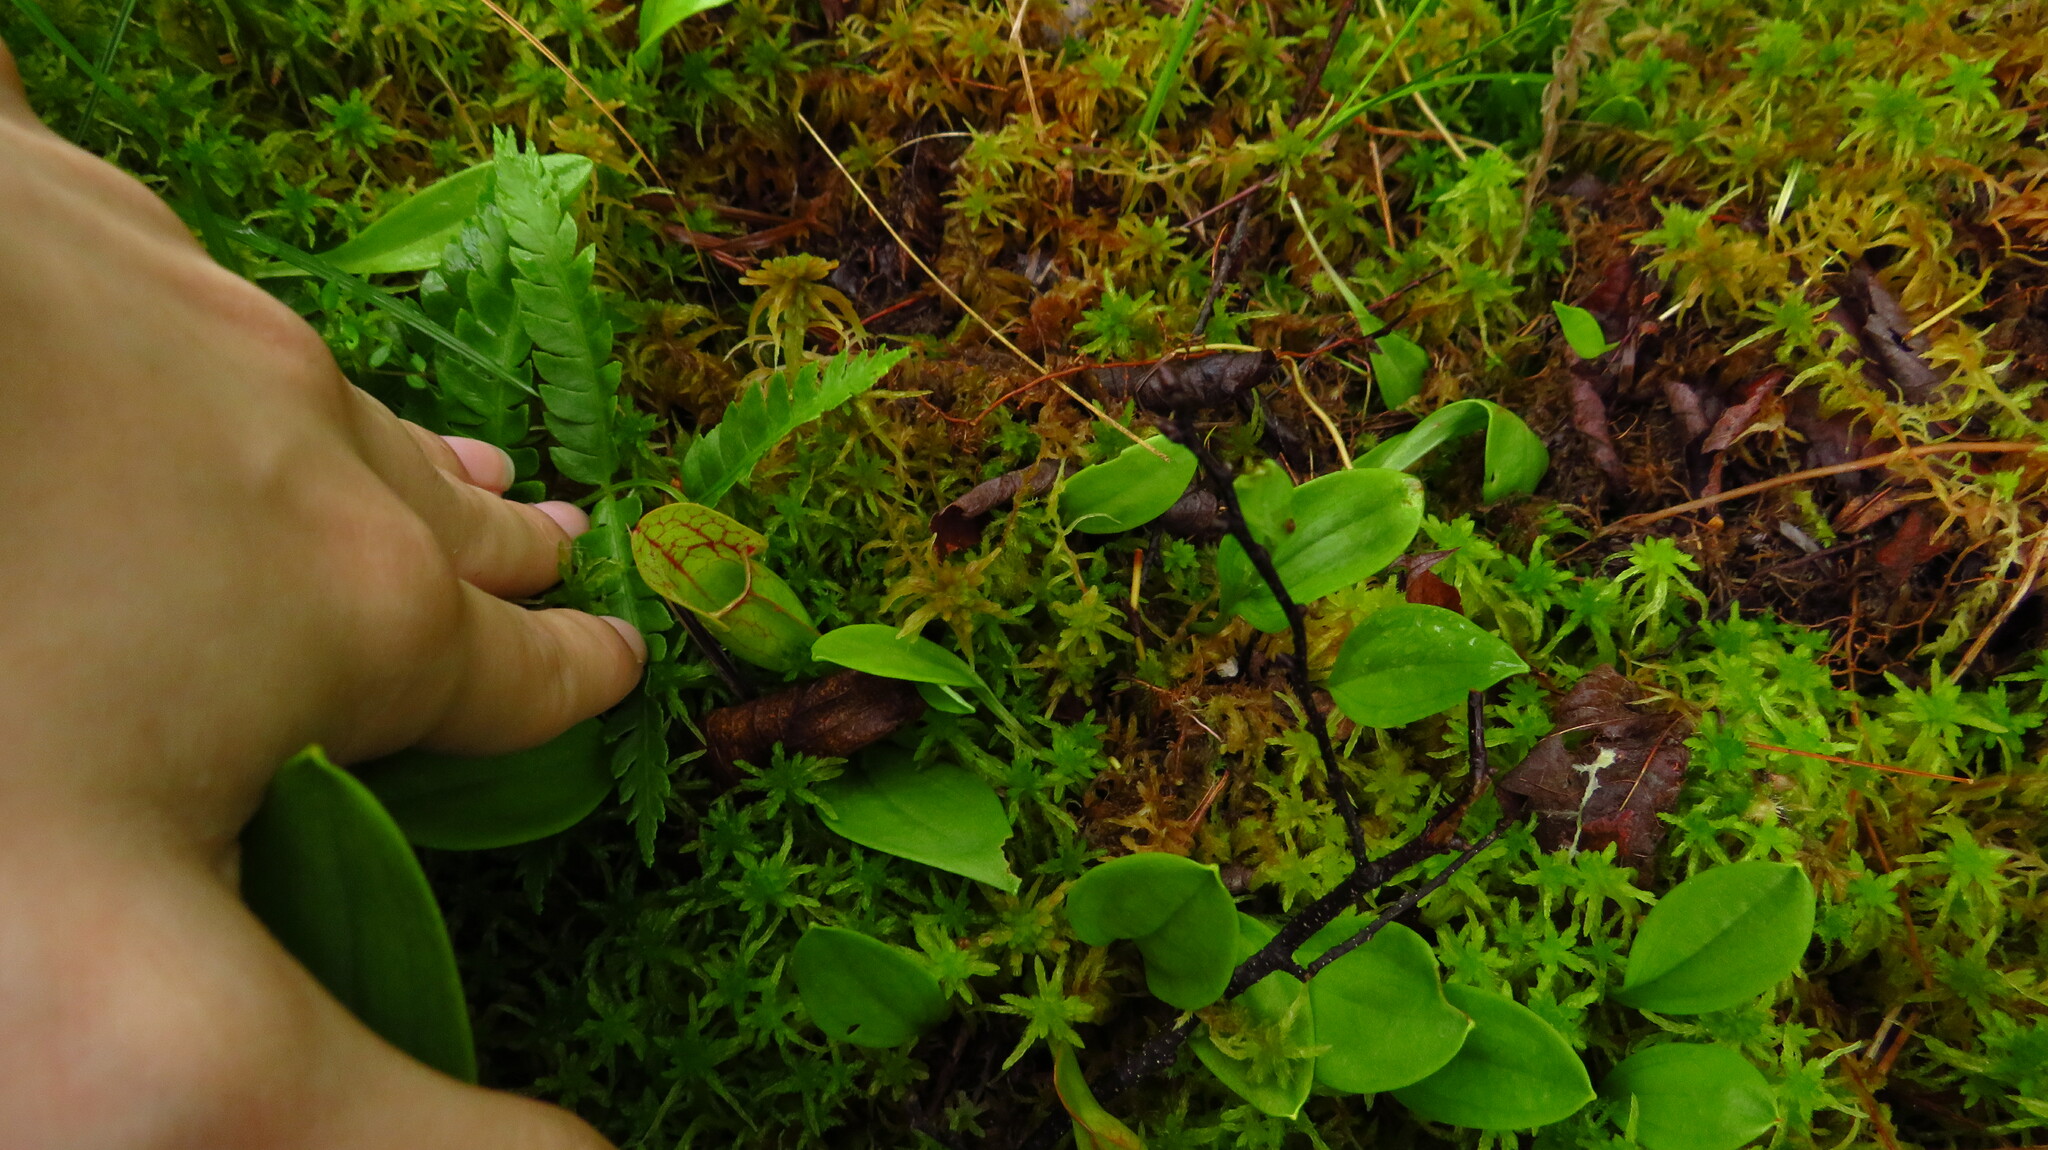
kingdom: Plantae
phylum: Tracheophyta
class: Magnoliopsida
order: Ericales
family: Sarraceniaceae
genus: Sarracenia
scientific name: Sarracenia purpurea
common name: Pitcherplant
